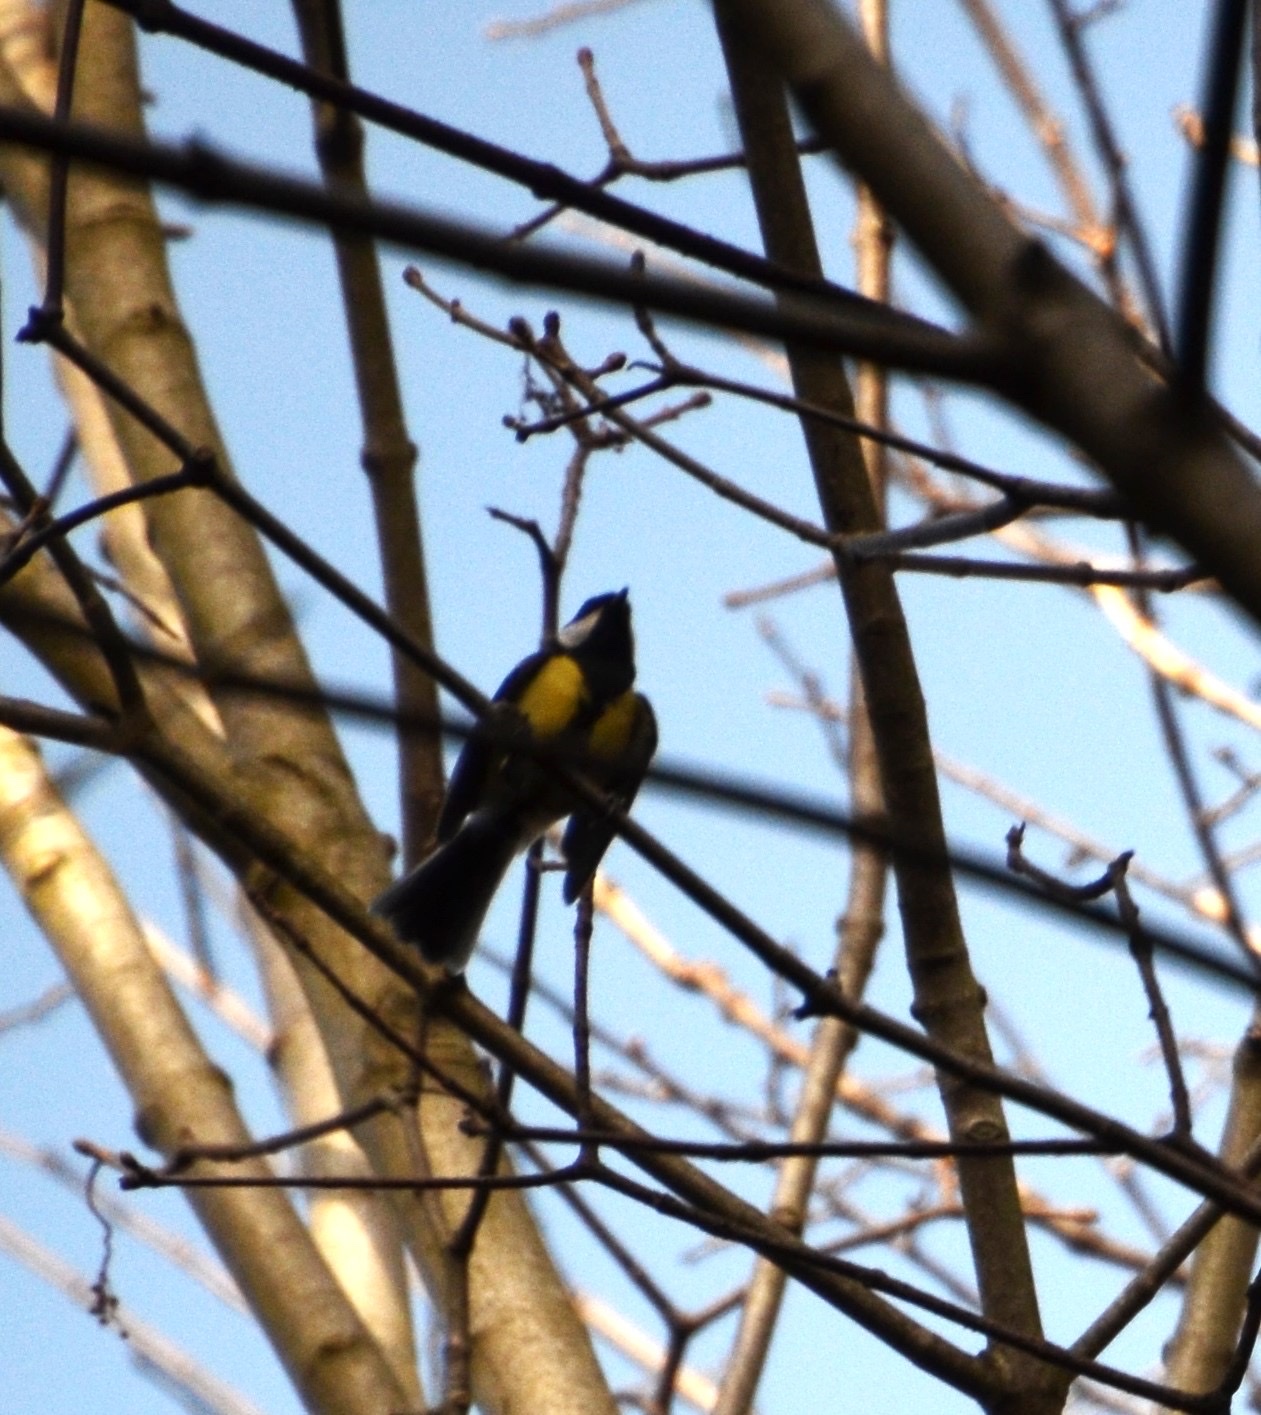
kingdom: Animalia
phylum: Chordata
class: Aves
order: Passeriformes
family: Paridae
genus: Parus
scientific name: Parus major
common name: Great tit
